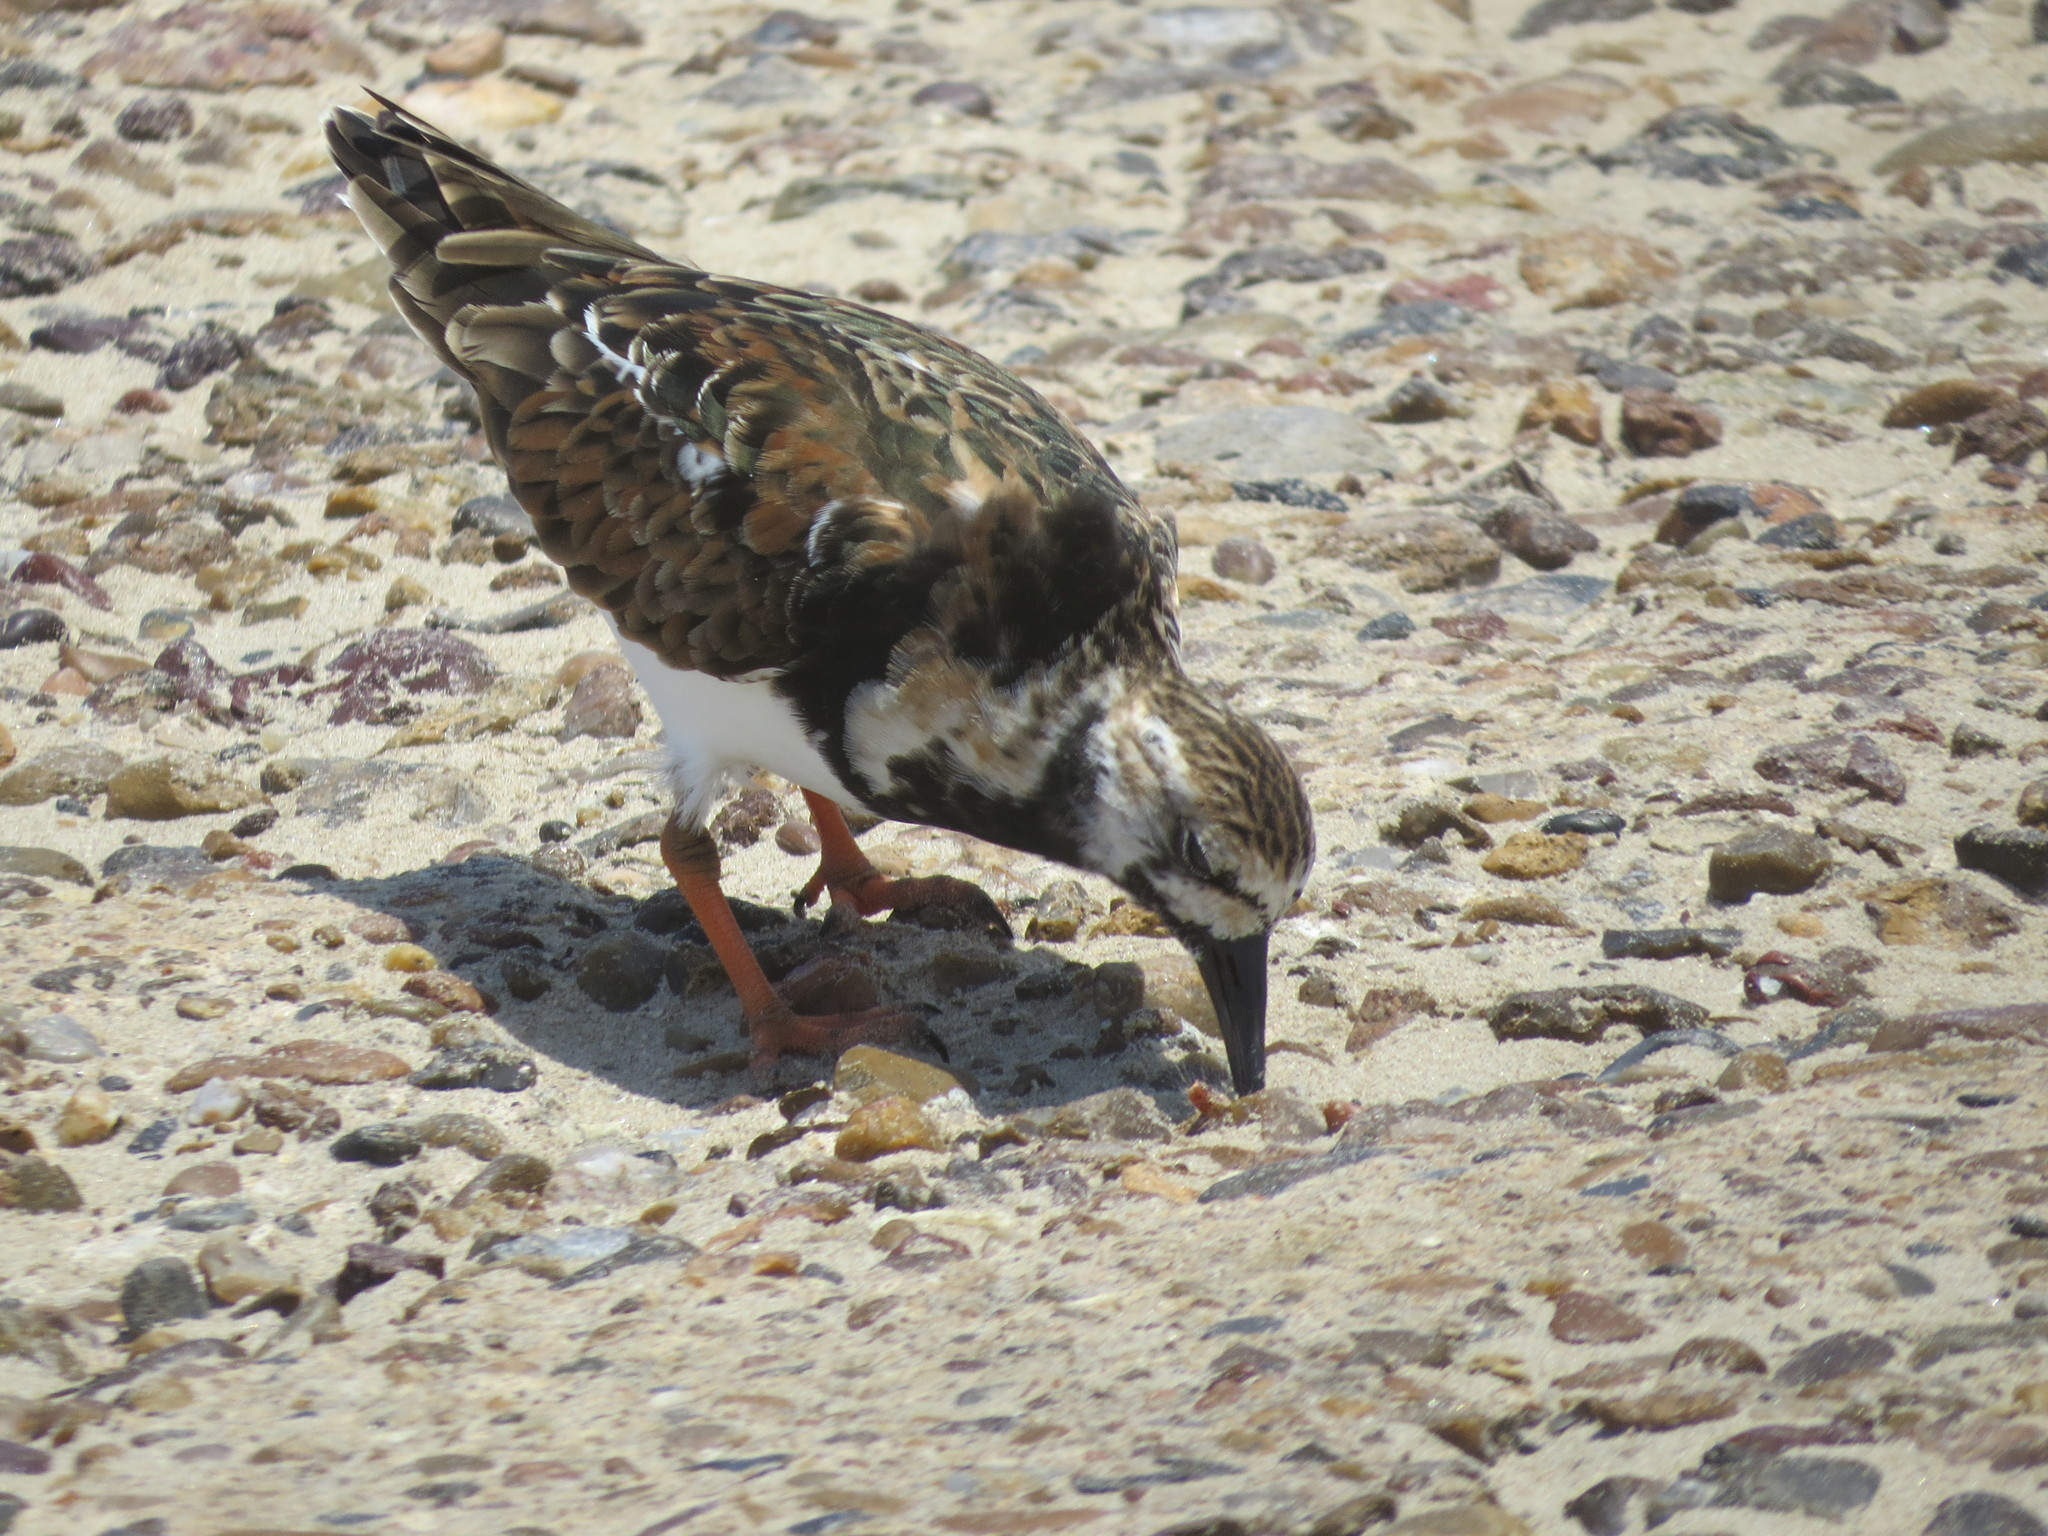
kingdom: Animalia
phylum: Chordata
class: Aves
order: Charadriiformes
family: Scolopacidae
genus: Arenaria
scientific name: Arenaria interpres
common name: Ruddy turnstone
